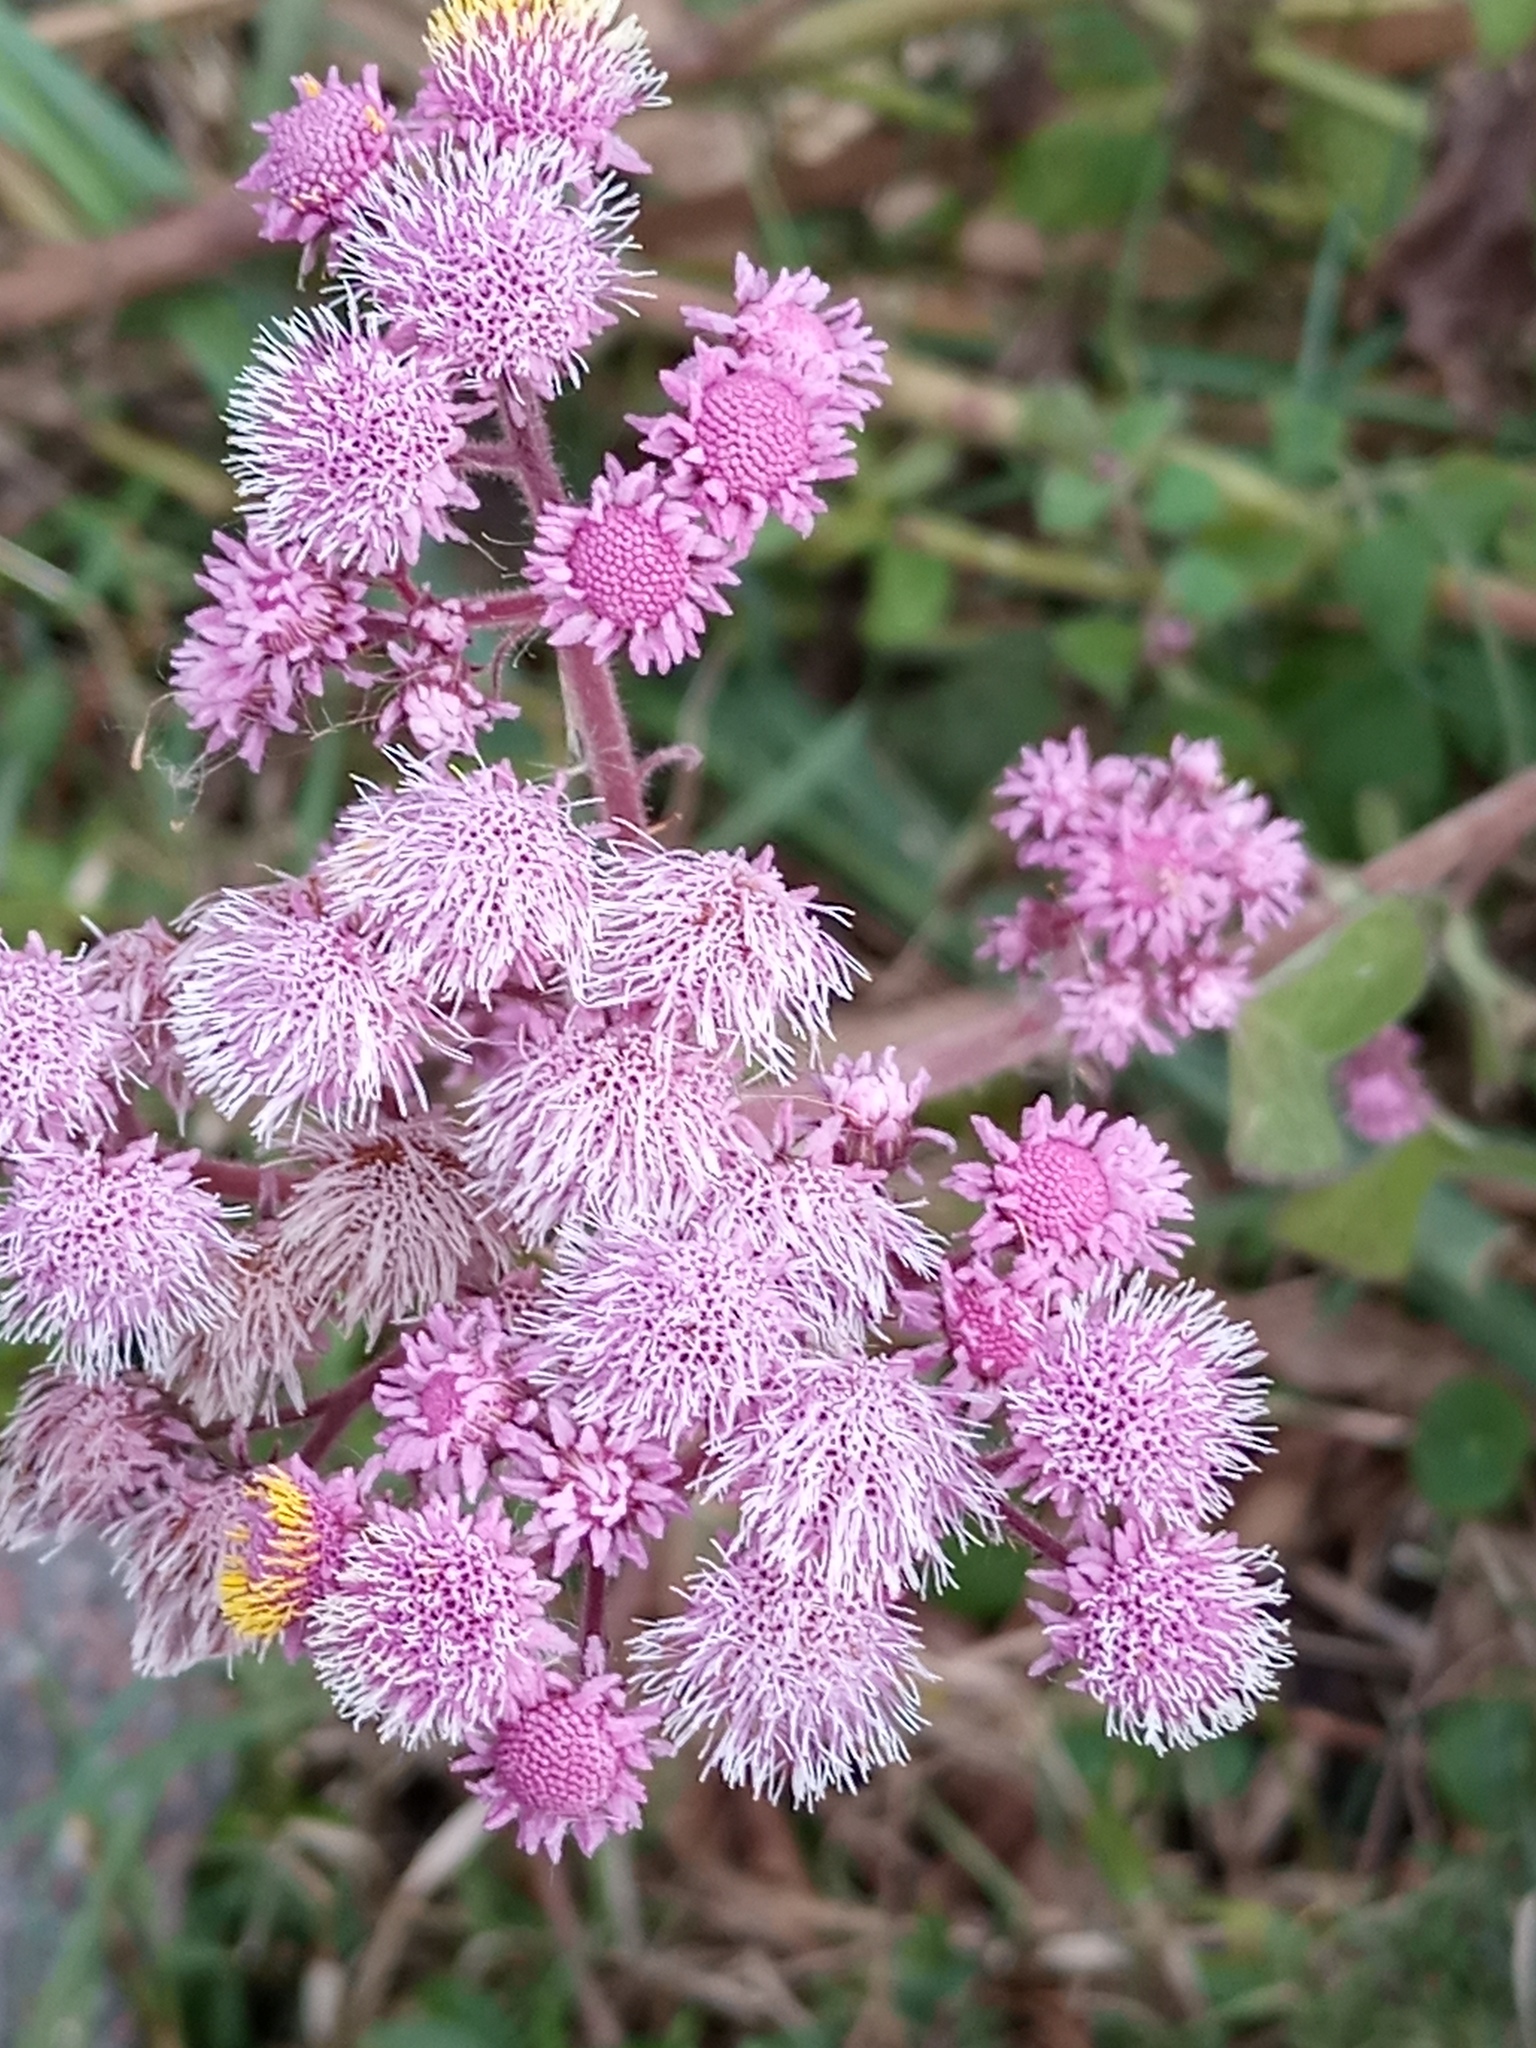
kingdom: Plantae
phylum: Tracheophyta
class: Magnoliopsida
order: Asterales
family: Asteraceae
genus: Urolepis
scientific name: Urolepis hecatantha
